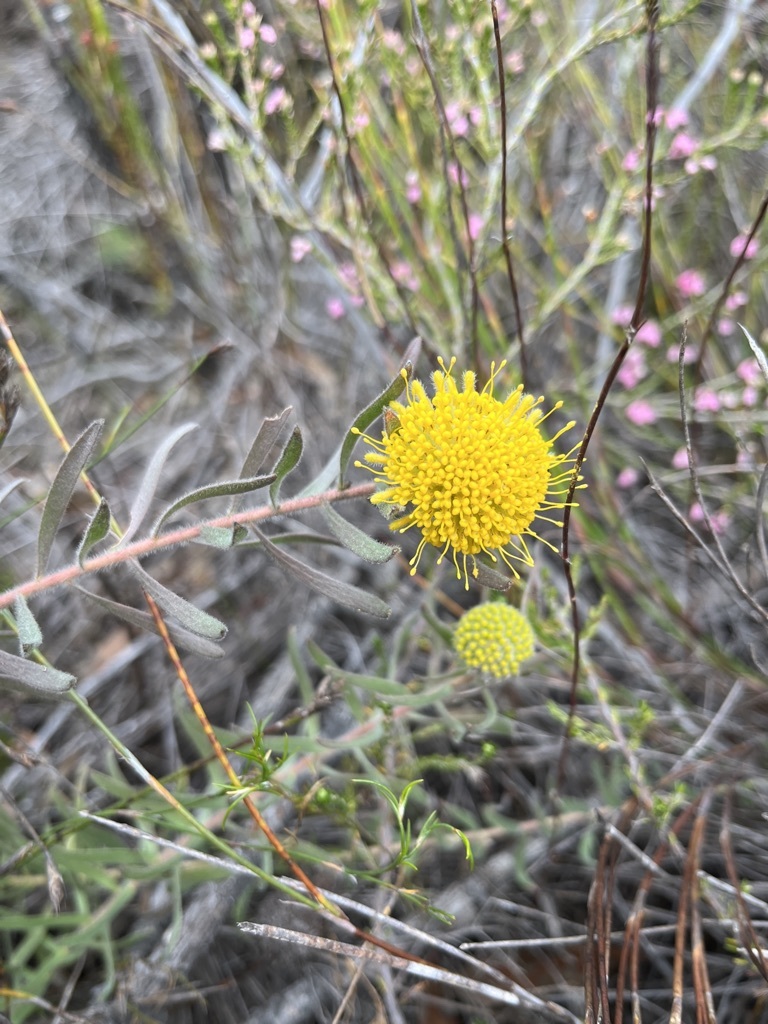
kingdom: Plantae
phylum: Tracheophyta
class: Magnoliopsida
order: Proteales
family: Proteaceae
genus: Leucospermum
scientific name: Leucospermum prostratum
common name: Yellow-trailing pincushion
